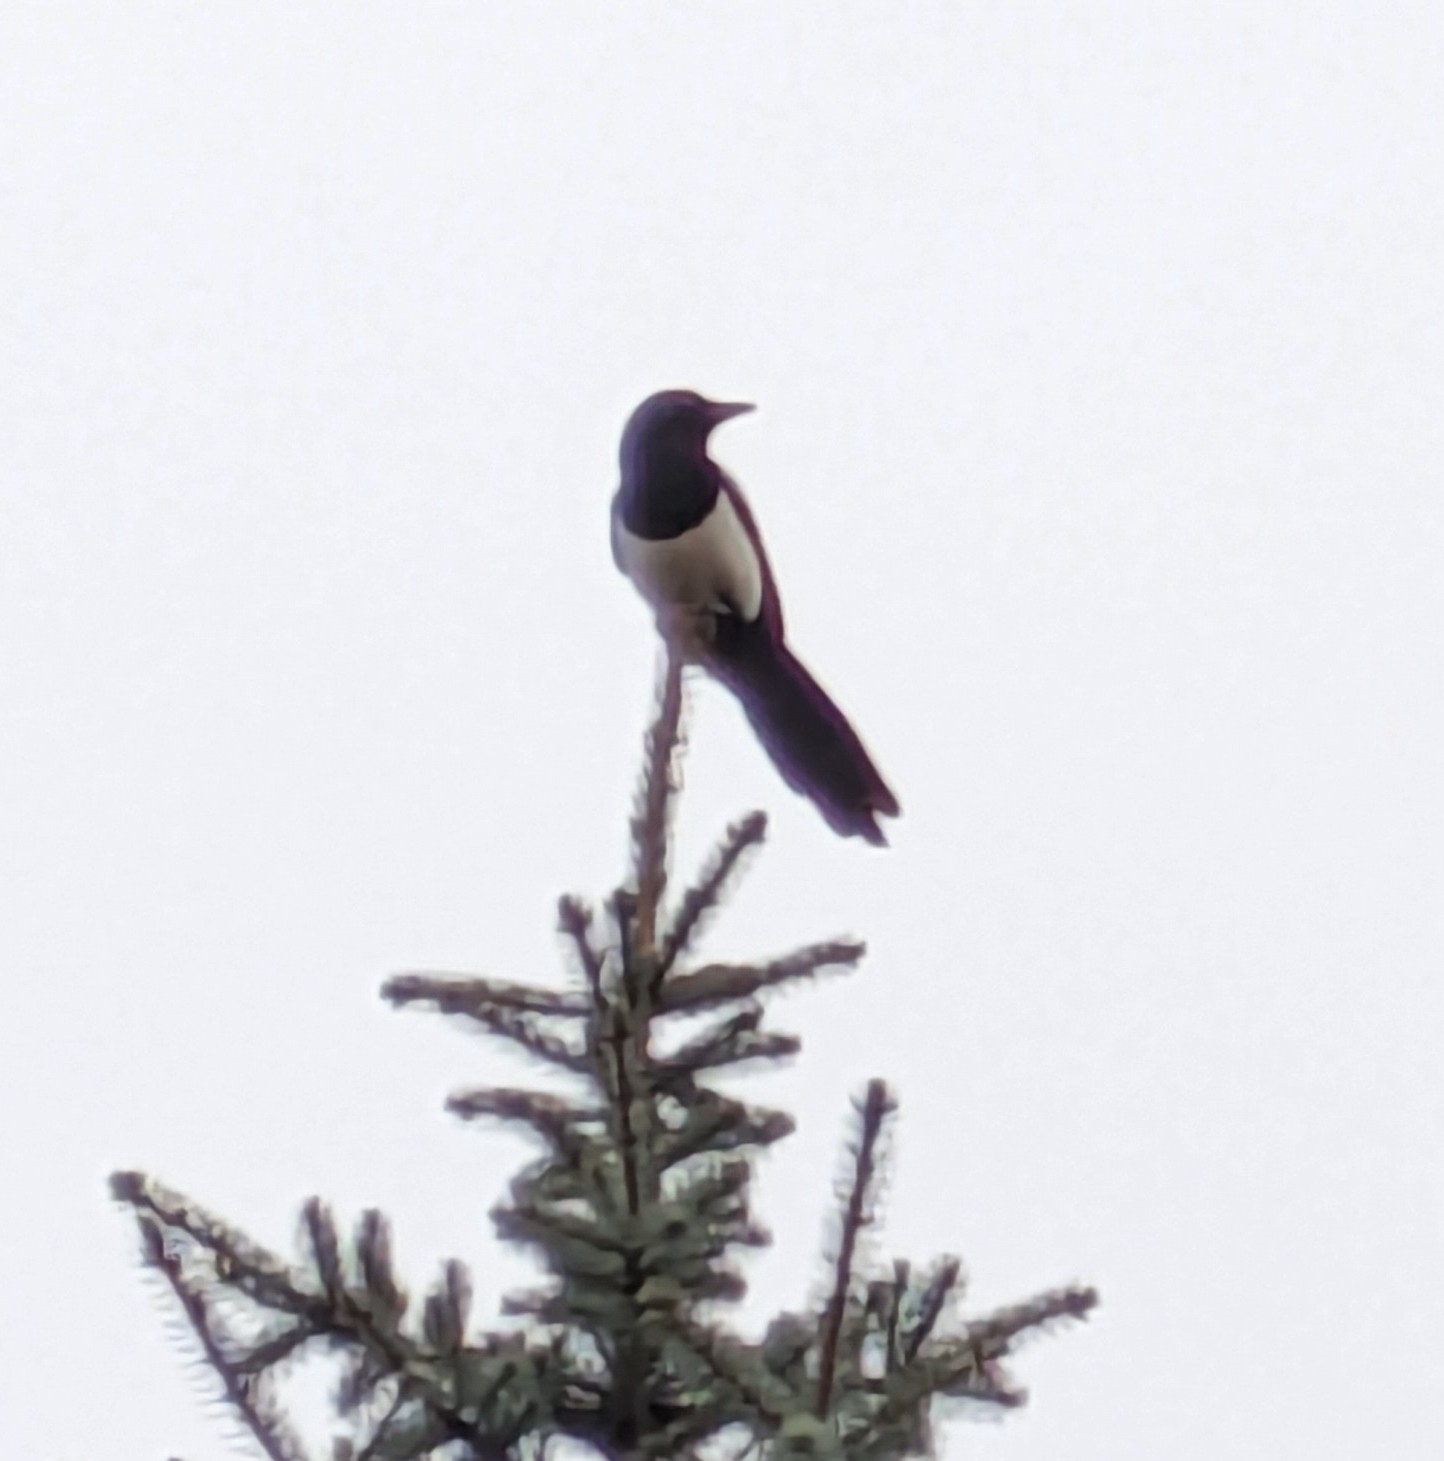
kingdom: Animalia
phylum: Chordata
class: Aves
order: Passeriformes
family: Corvidae
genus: Pica
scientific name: Pica pica
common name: Eurasian magpie
